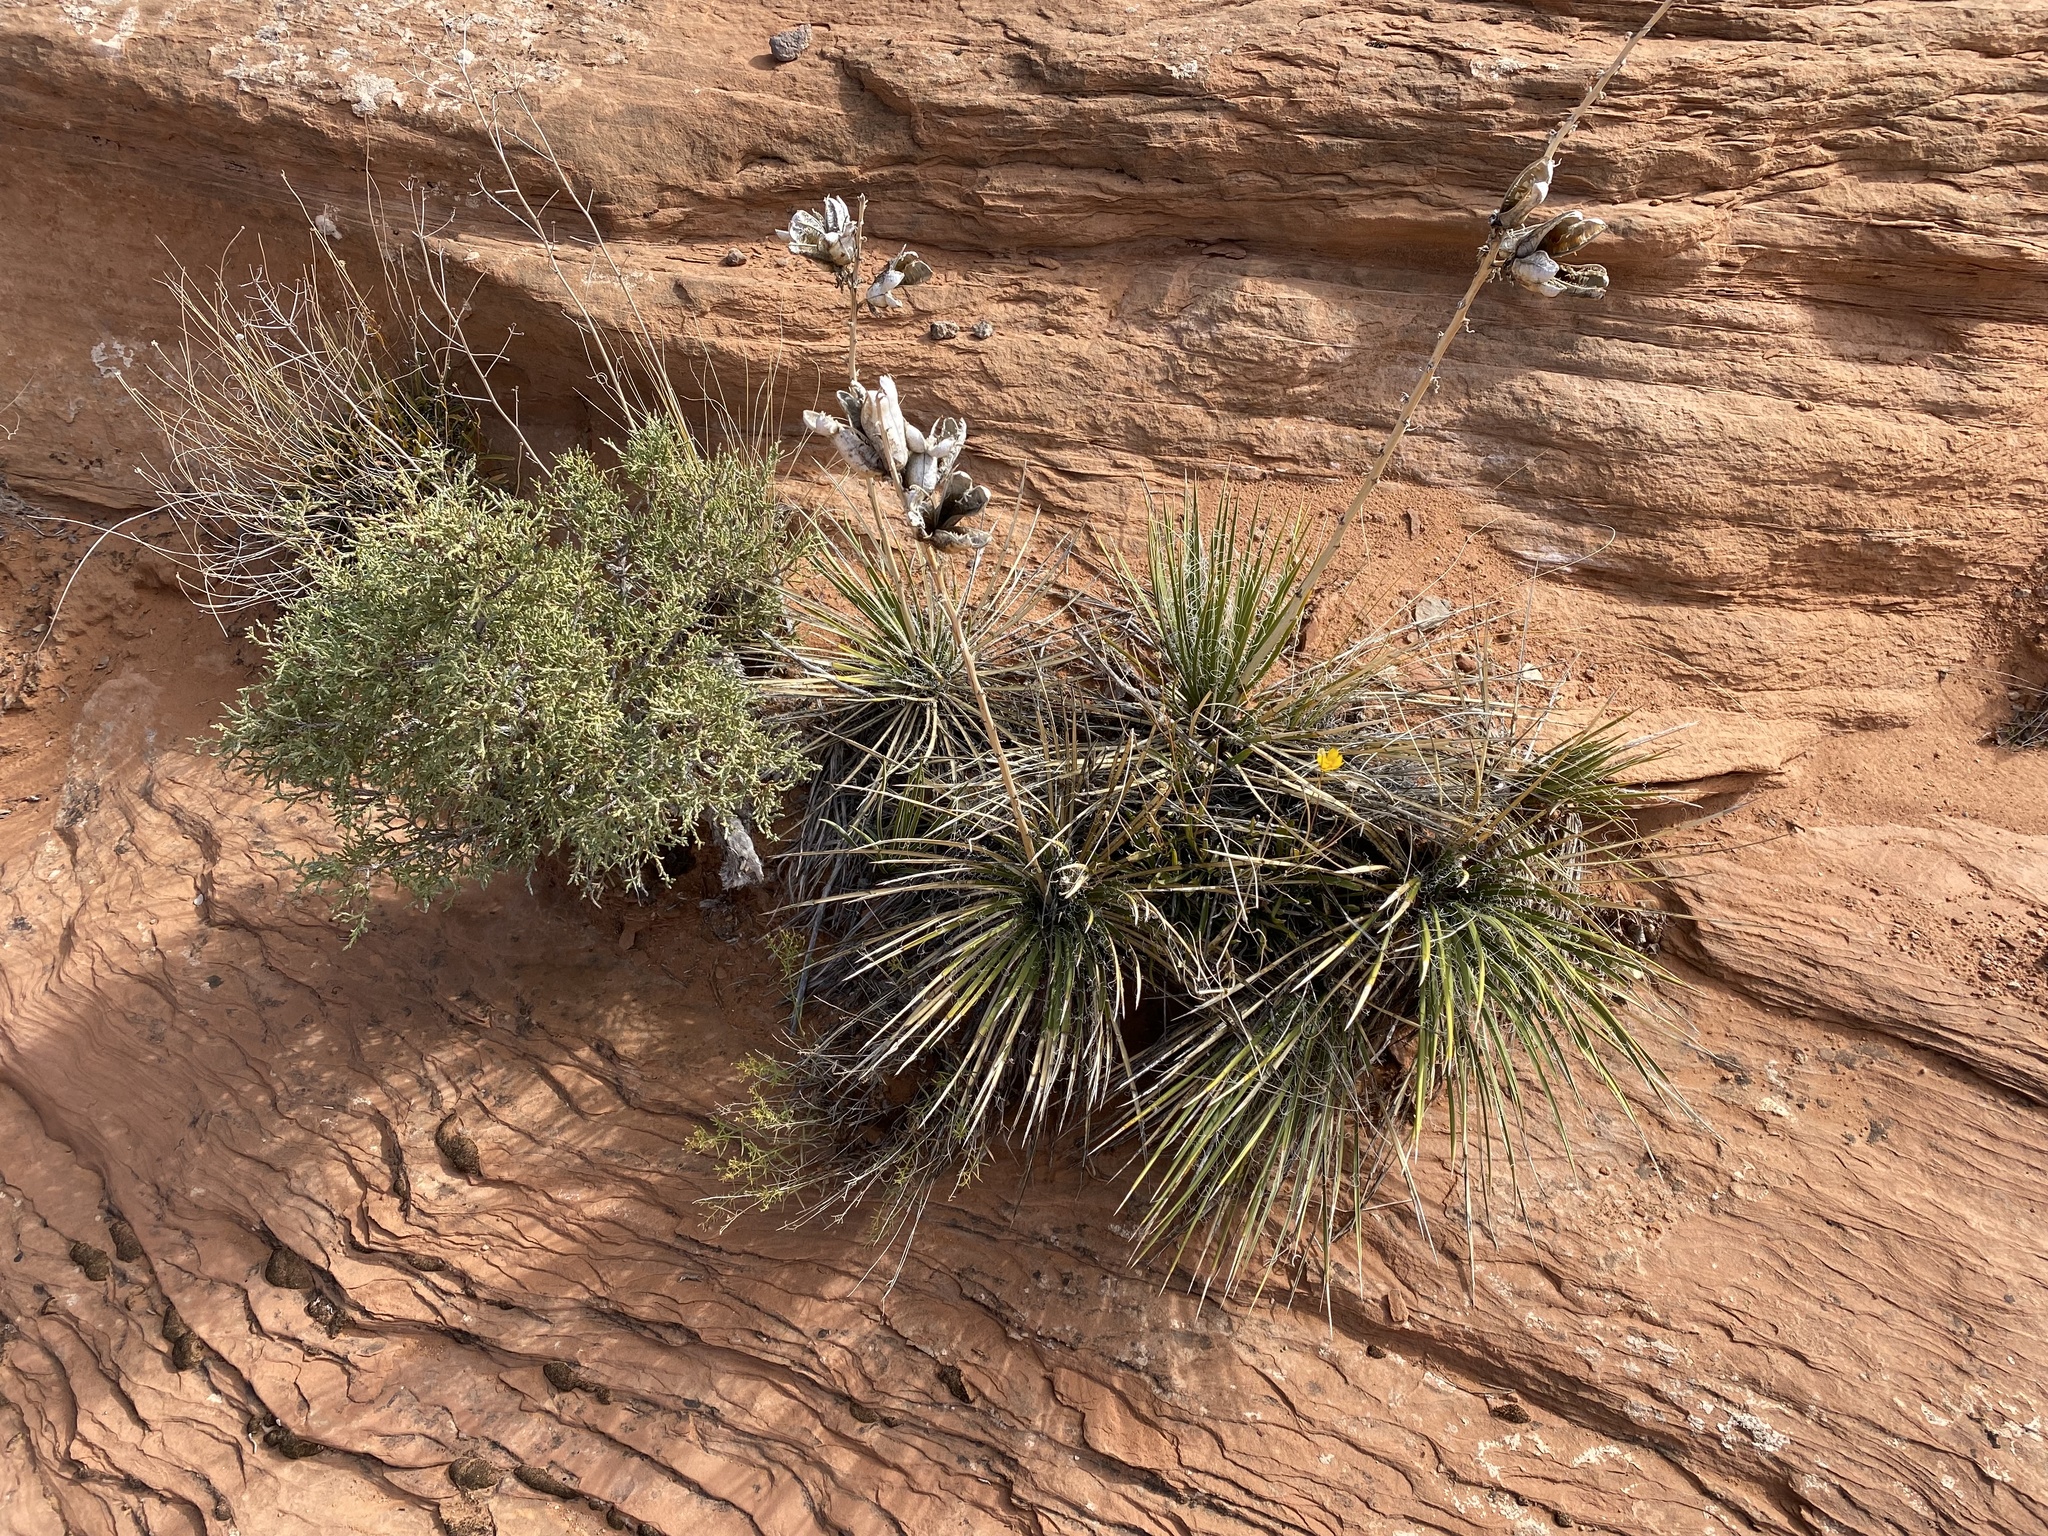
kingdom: Plantae
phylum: Tracheophyta
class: Liliopsida
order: Asparagales
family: Asparagaceae
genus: Yucca
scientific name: Yucca baileyi
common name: Alpine yucca
